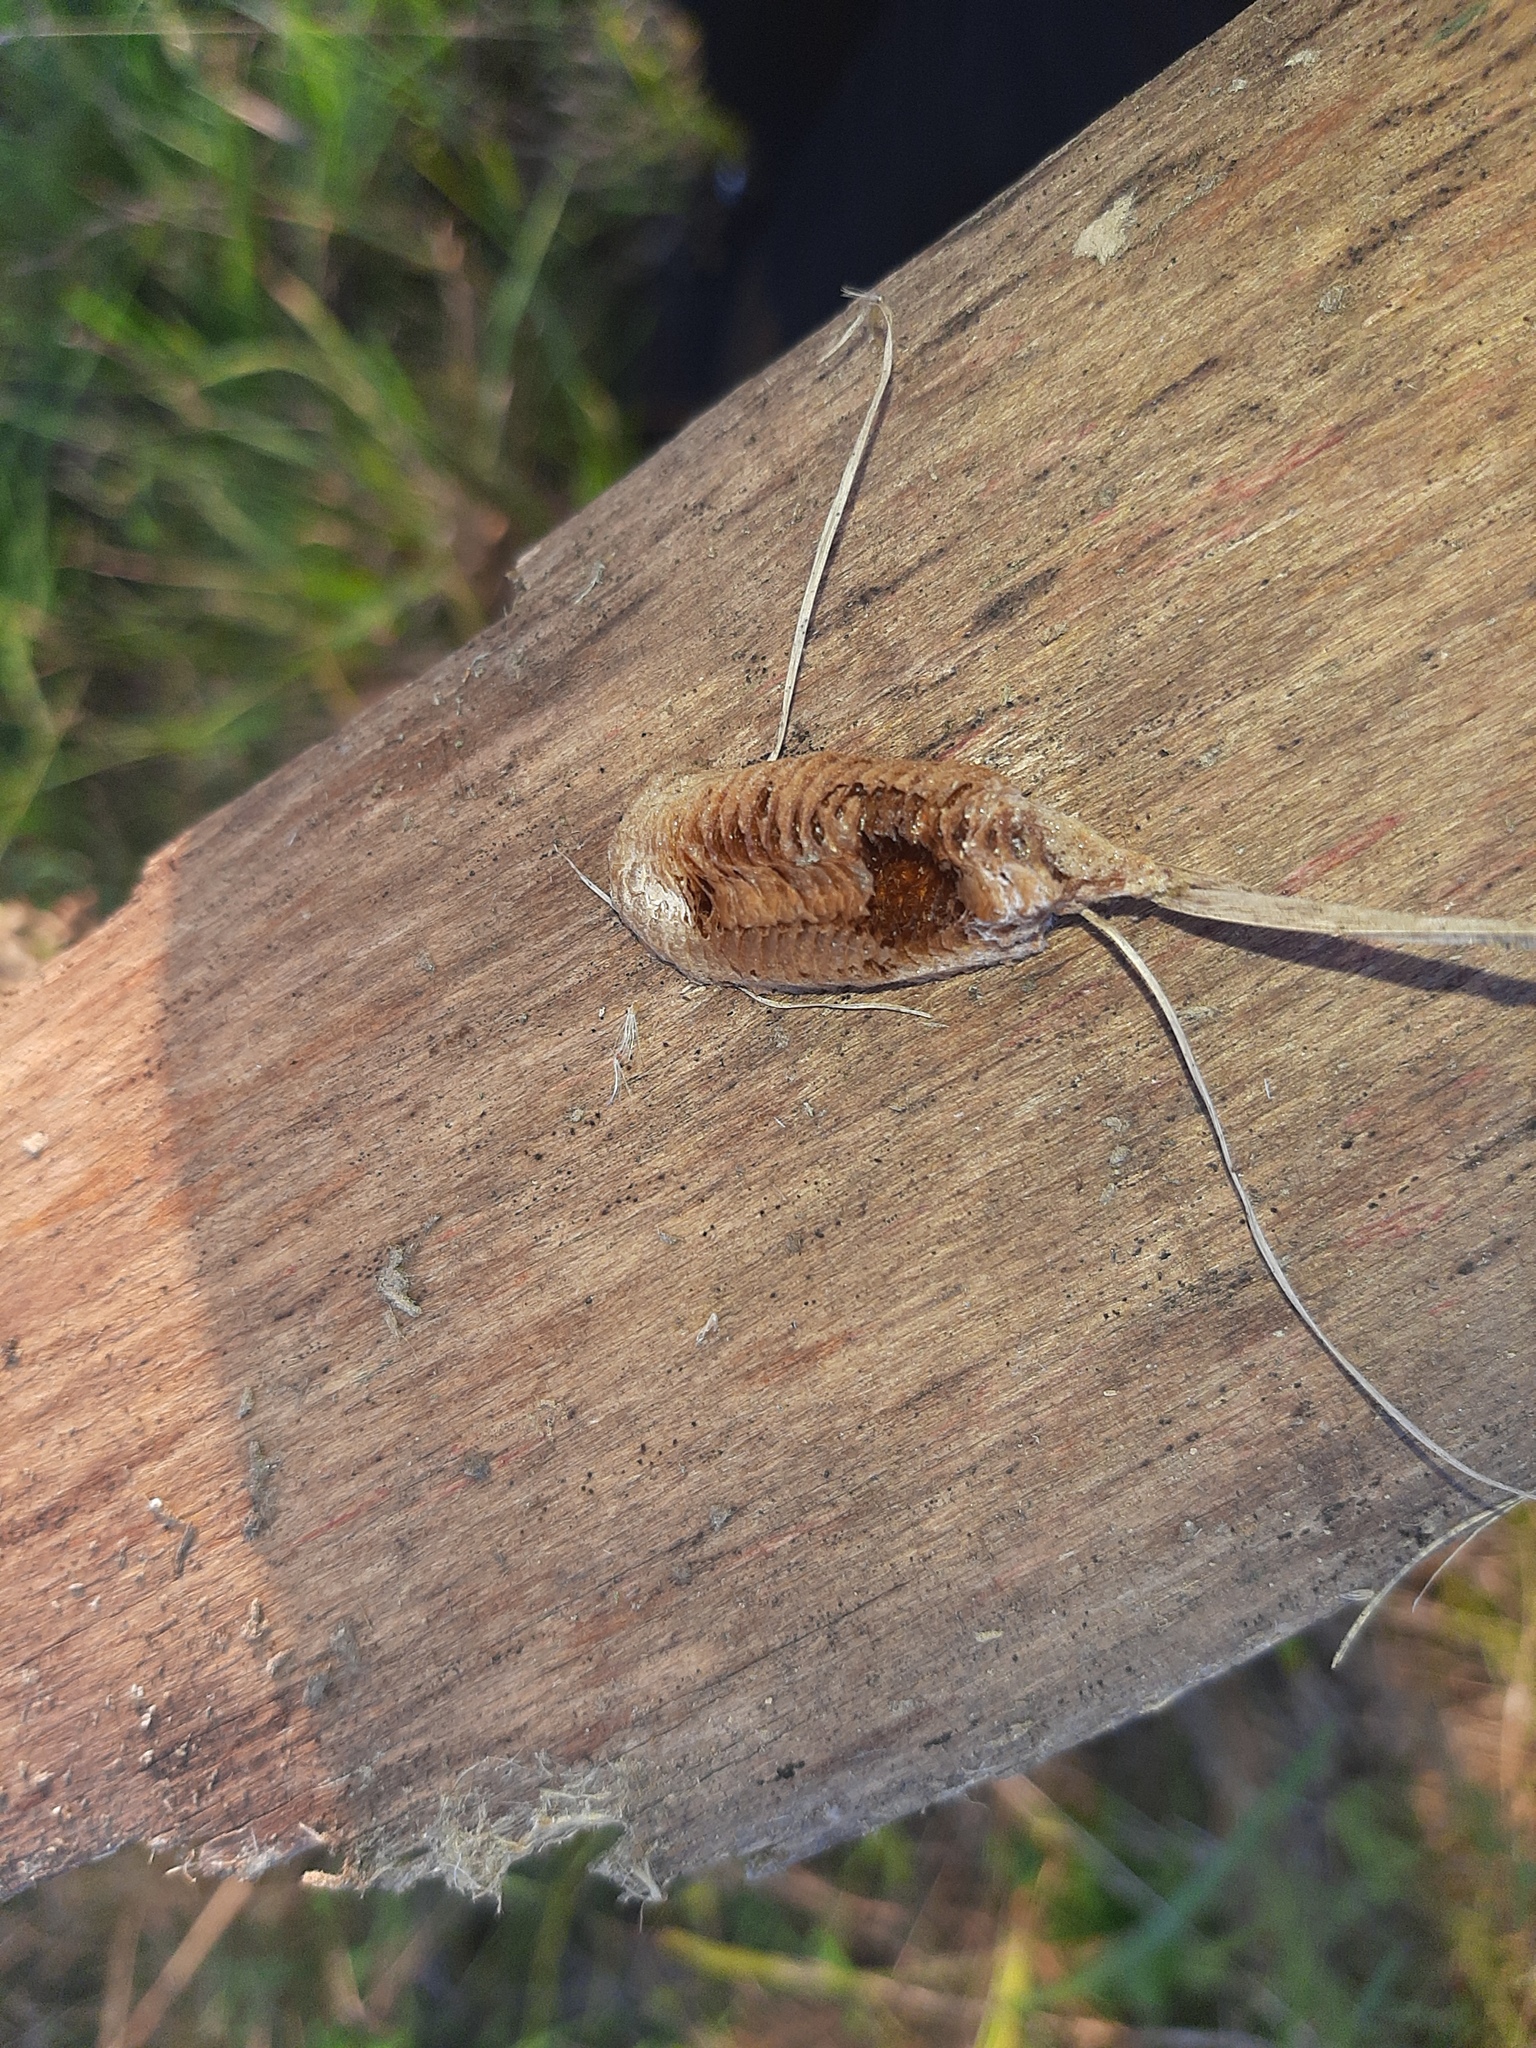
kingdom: Animalia
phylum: Arthropoda
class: Insecta
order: Mantodea
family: Mantidae
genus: Mantis
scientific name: Mantis religiosa
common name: Praying mantis
